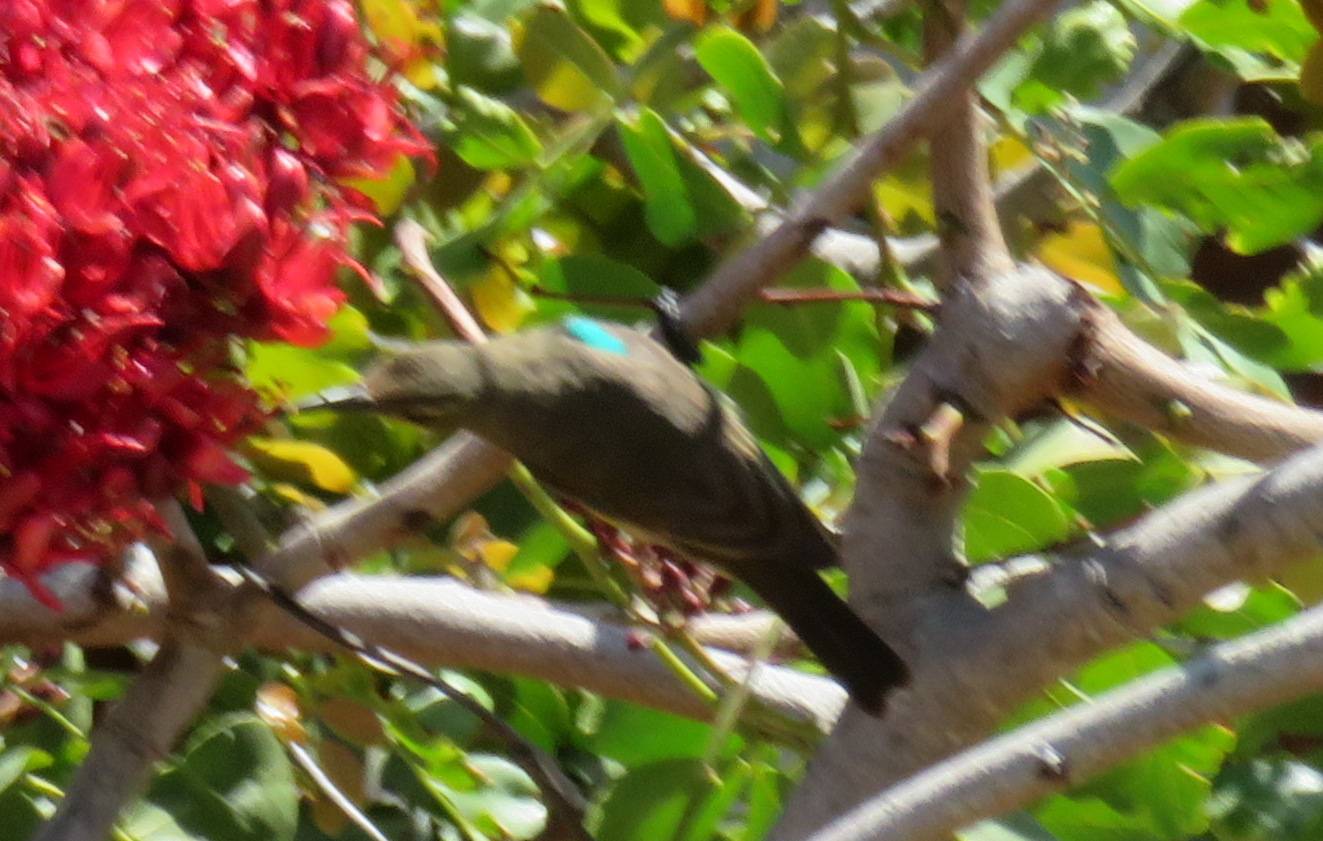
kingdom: Animalia
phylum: Chordata
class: Aves
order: Passeriformes
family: Nectariniidae
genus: Nectarinia
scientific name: Nectarinia famosa
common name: Malachite sunbird
